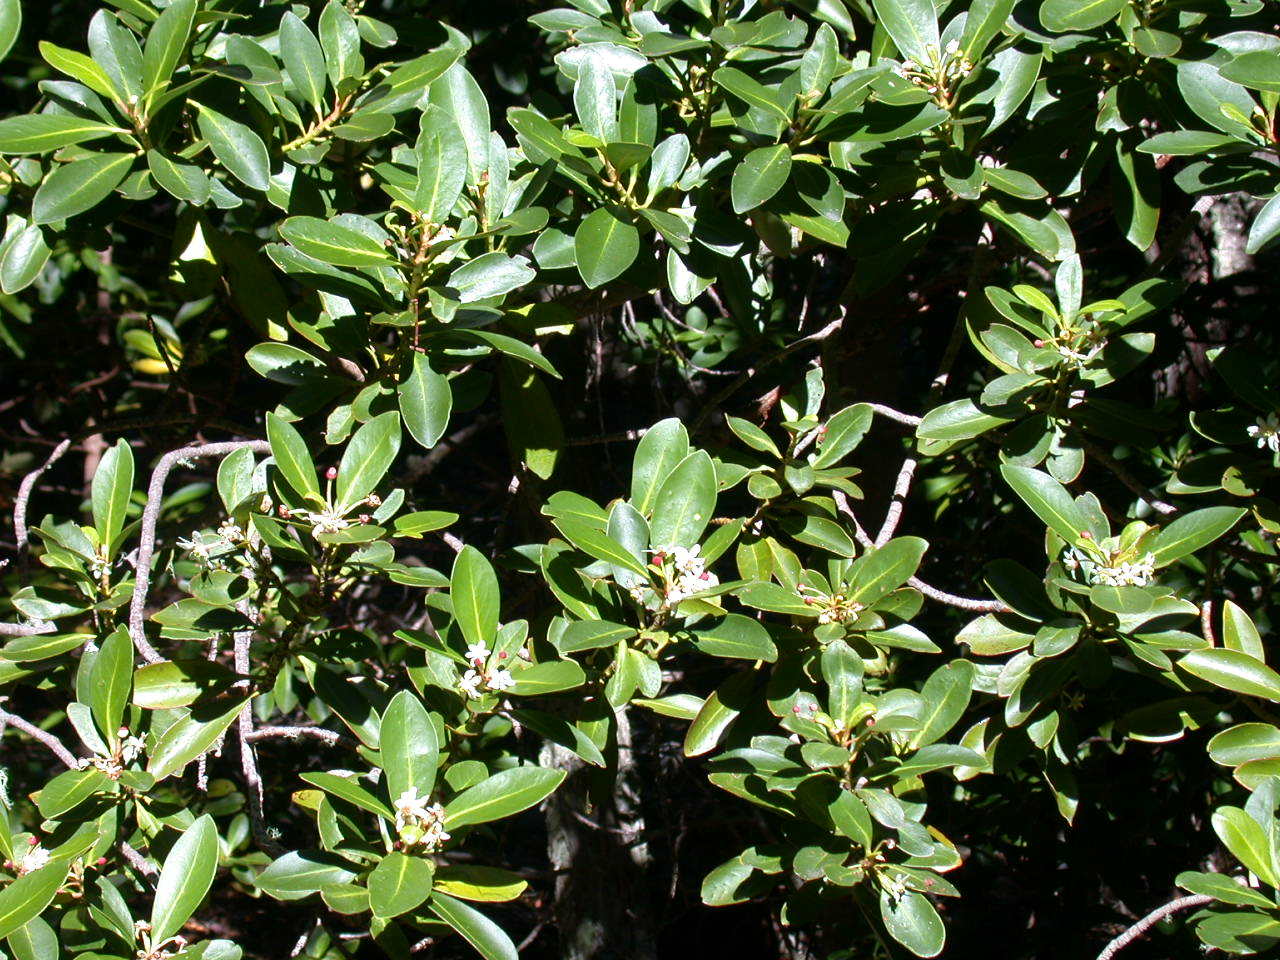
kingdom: Plantae
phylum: Tracheophyta
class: Magnoliopsida
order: Canellales
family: Winteraceae
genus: Drimys
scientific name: Drimys winteri
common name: Winter's-bark
